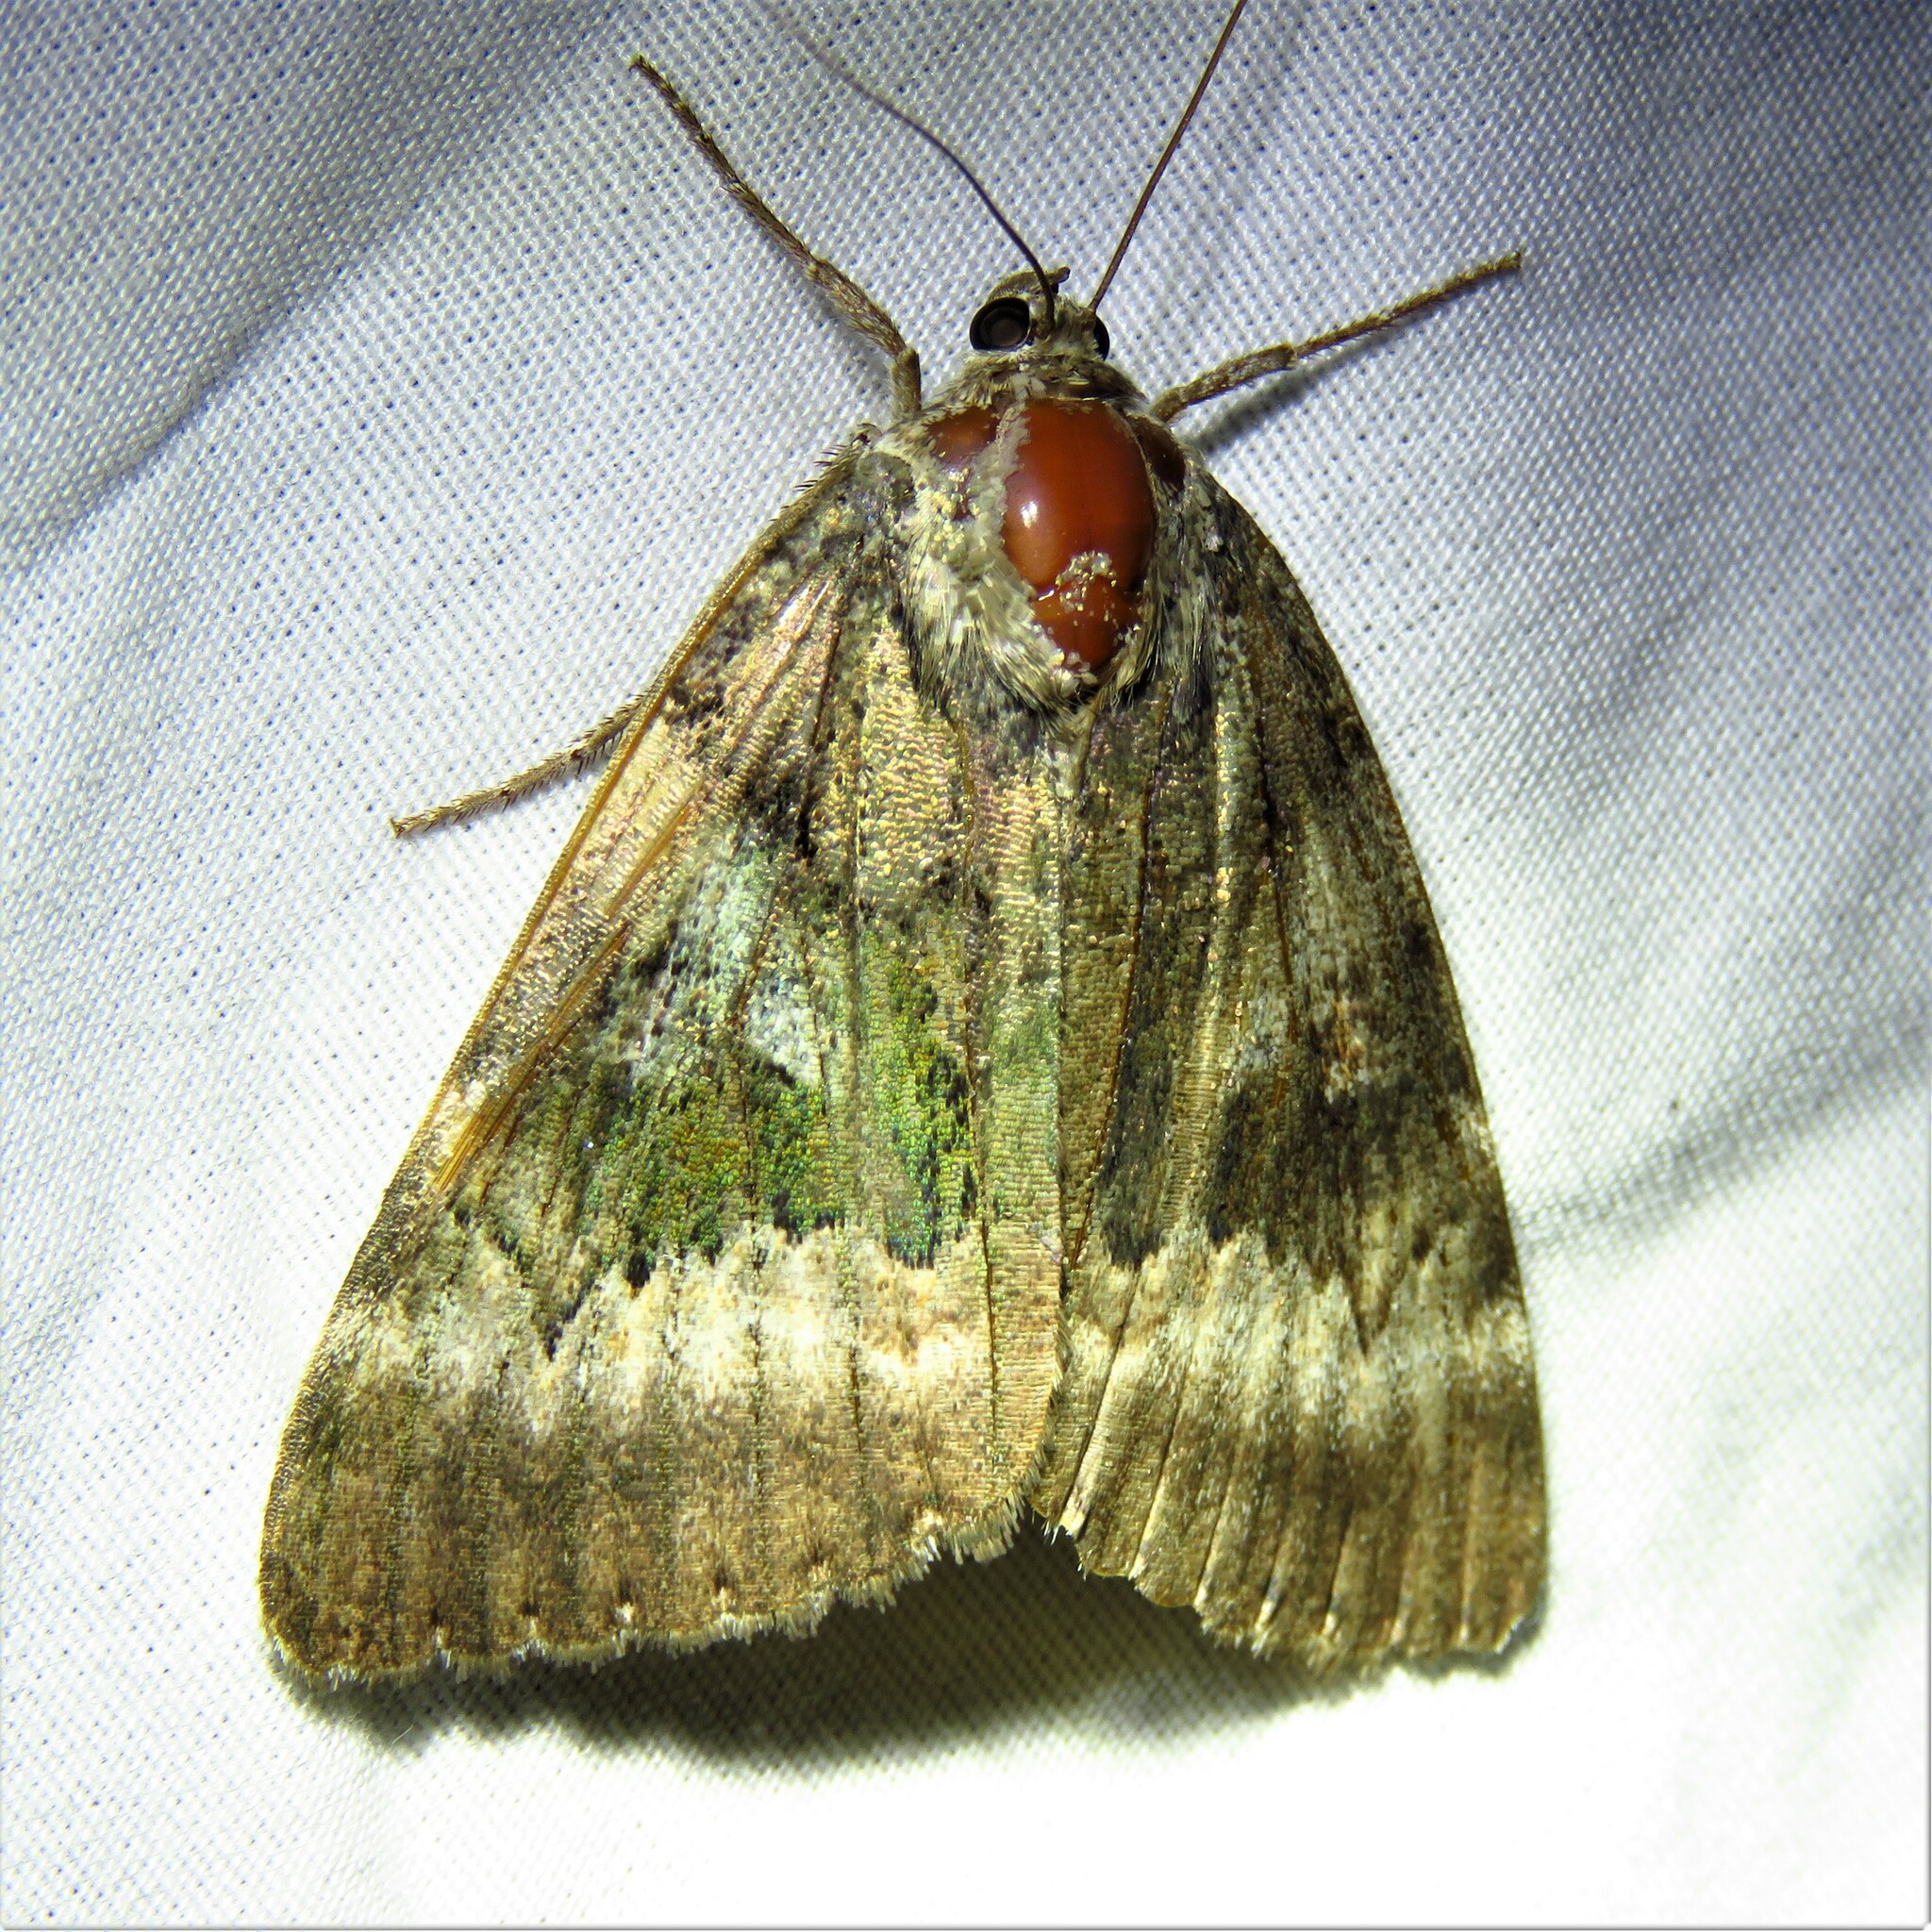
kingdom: Animalia
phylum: Arthropoda
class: Insecta
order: Lepidoptera
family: Erebidae
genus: Catocala
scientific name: Catocala epione
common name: Epione underwing
